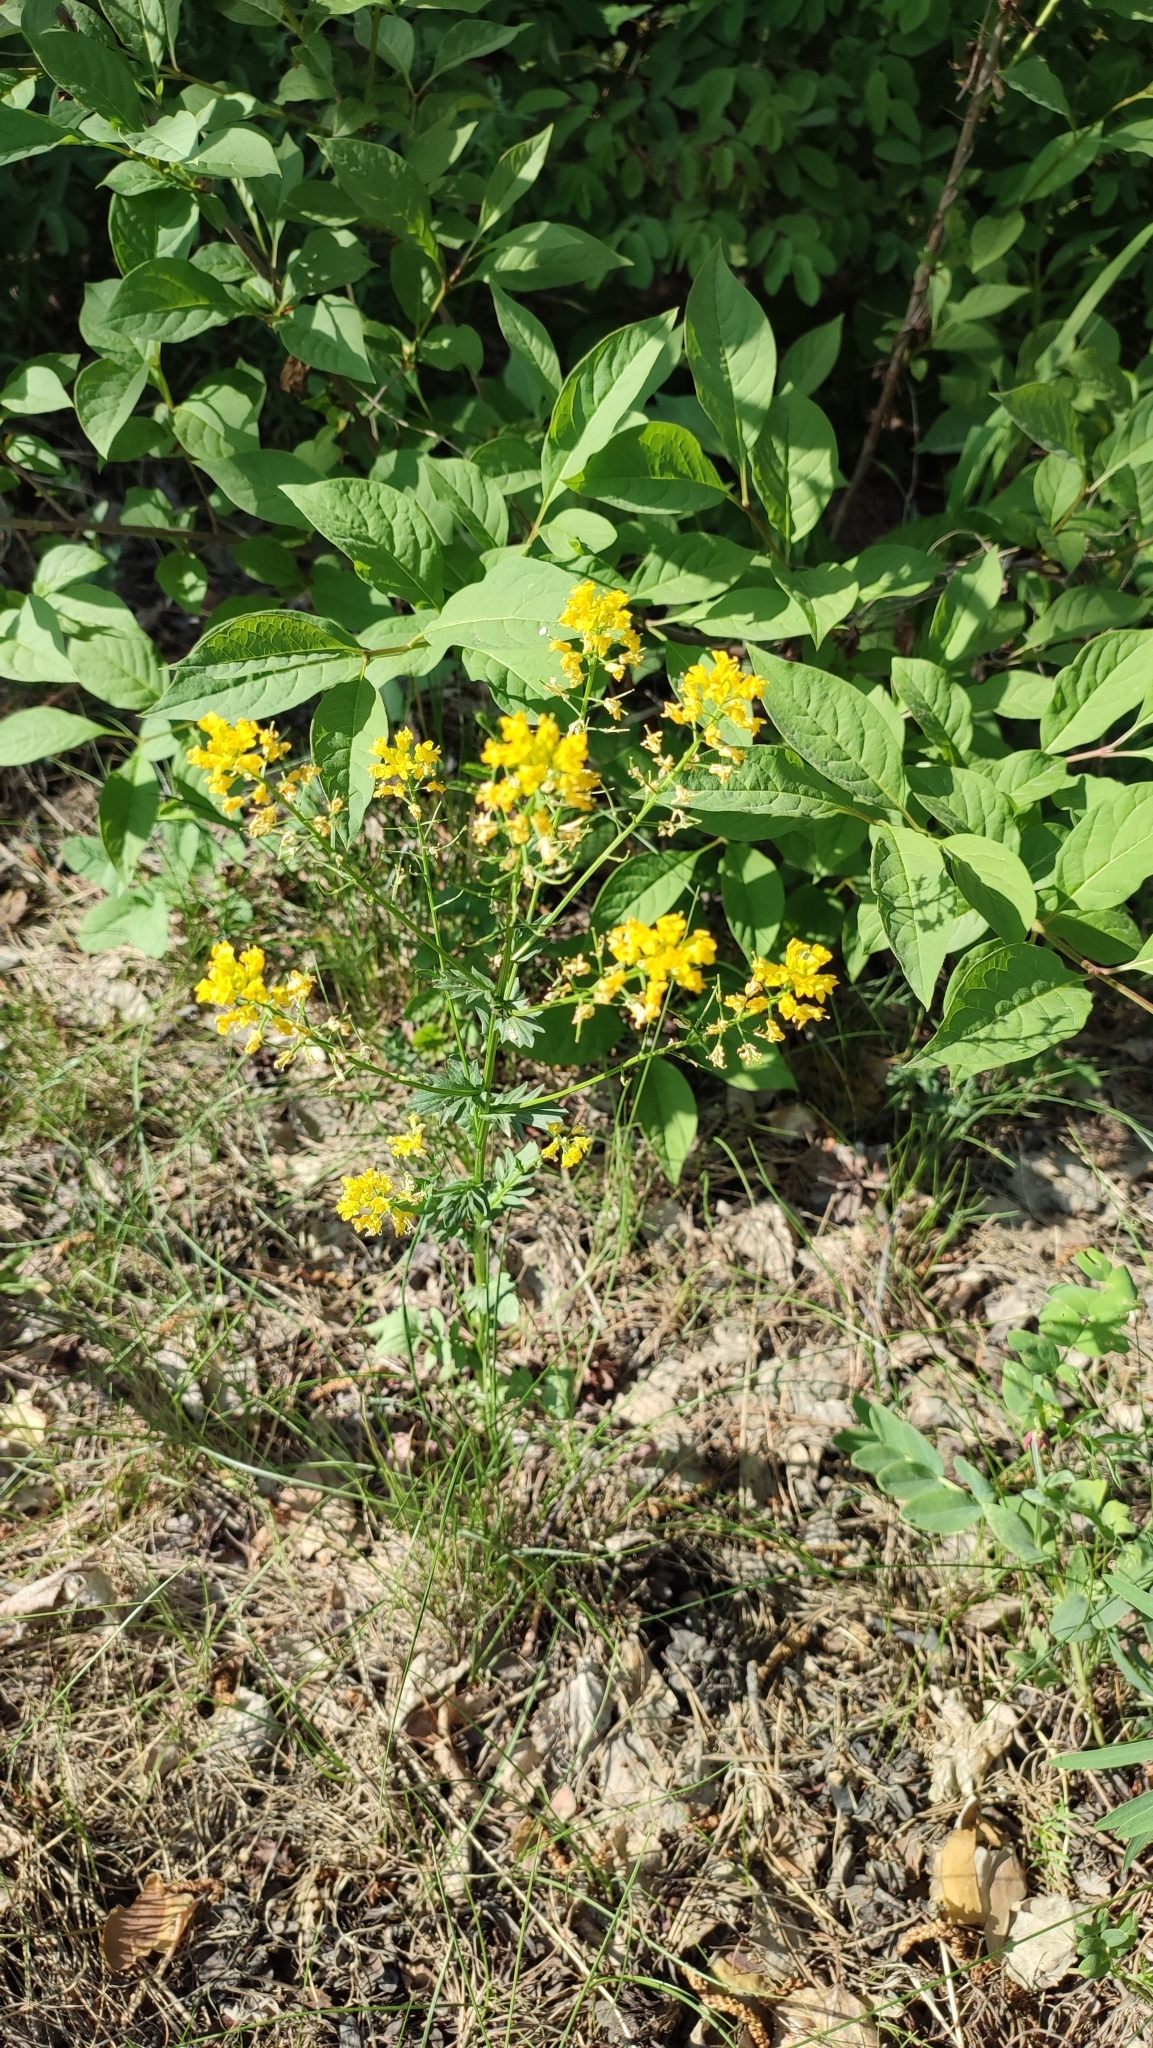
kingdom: Plantae
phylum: Tracheophyta
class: Magnoliopsida
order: Brassicales
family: Brassicaceae
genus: Sisymbrium
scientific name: Sisymbrium loeselii
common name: False london-rocket
